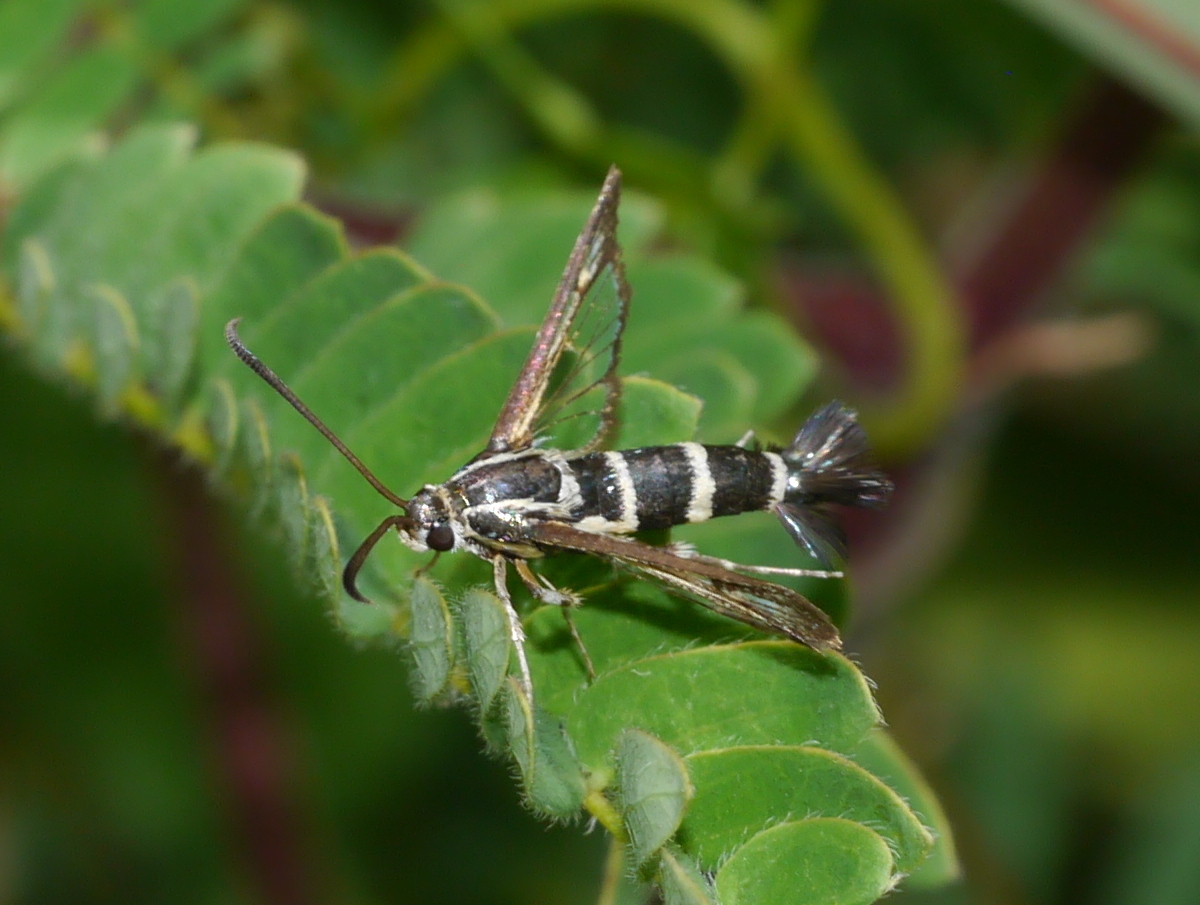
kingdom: Animalia
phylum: Arthropoda
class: Insecta
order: Lepidoptera
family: Sesiidae
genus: Carmenta
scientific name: Carmenta engelhardti
